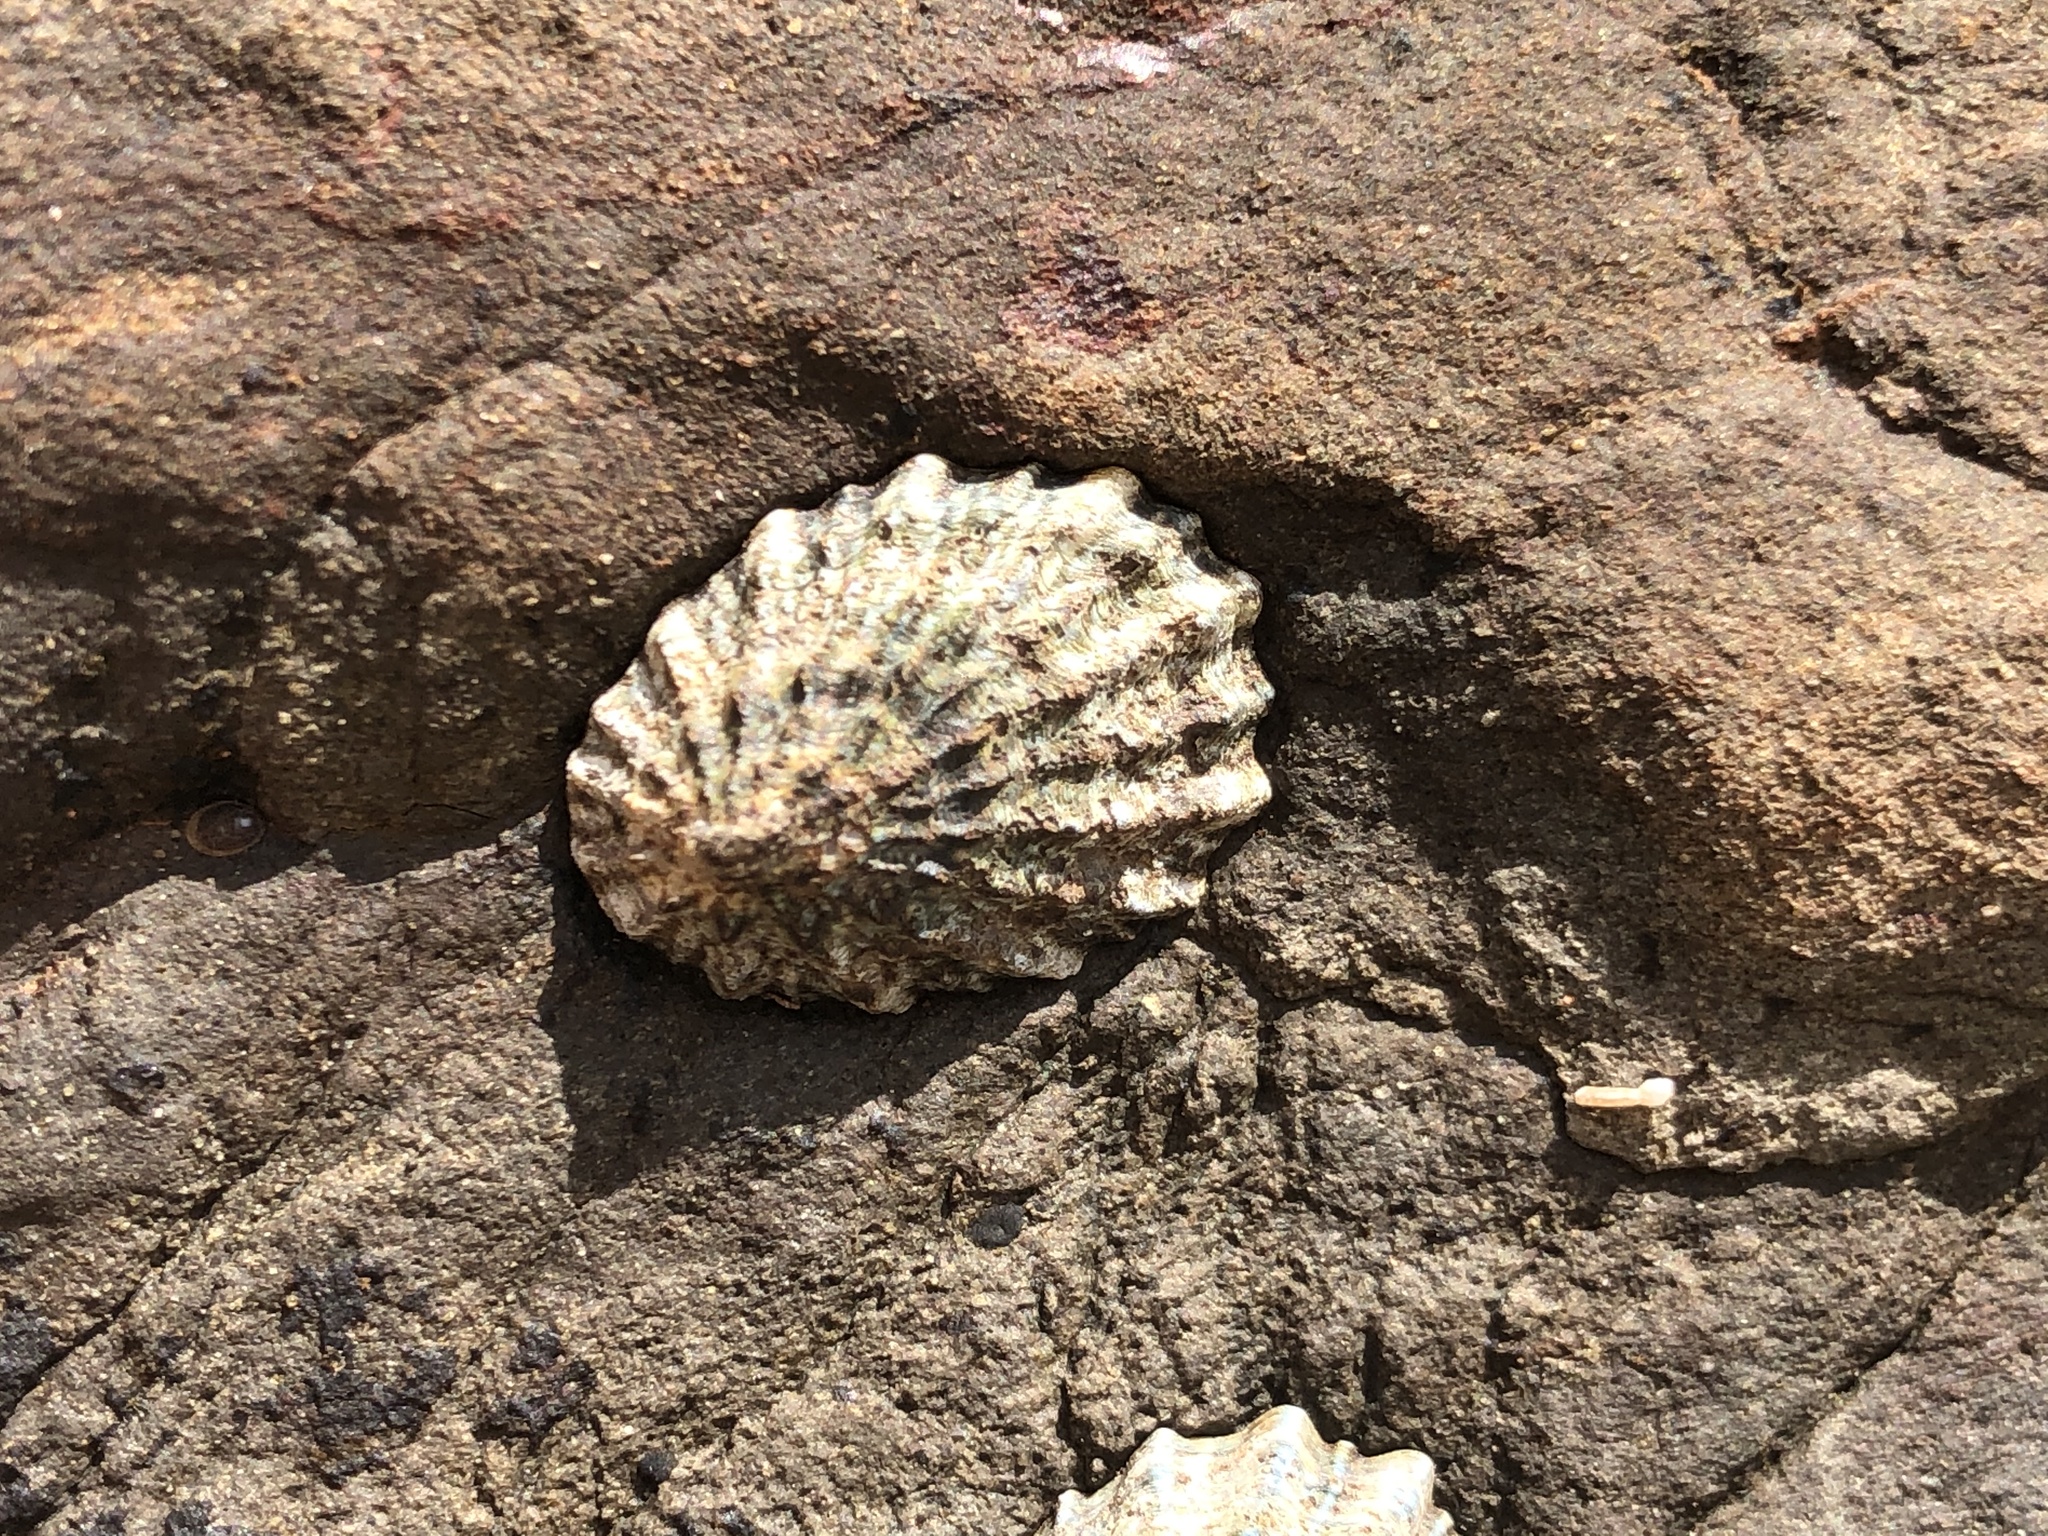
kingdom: Animalia
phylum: Mollusca
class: Gastropoda
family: Lottiidae
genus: Lottia
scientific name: Lottia scabra
